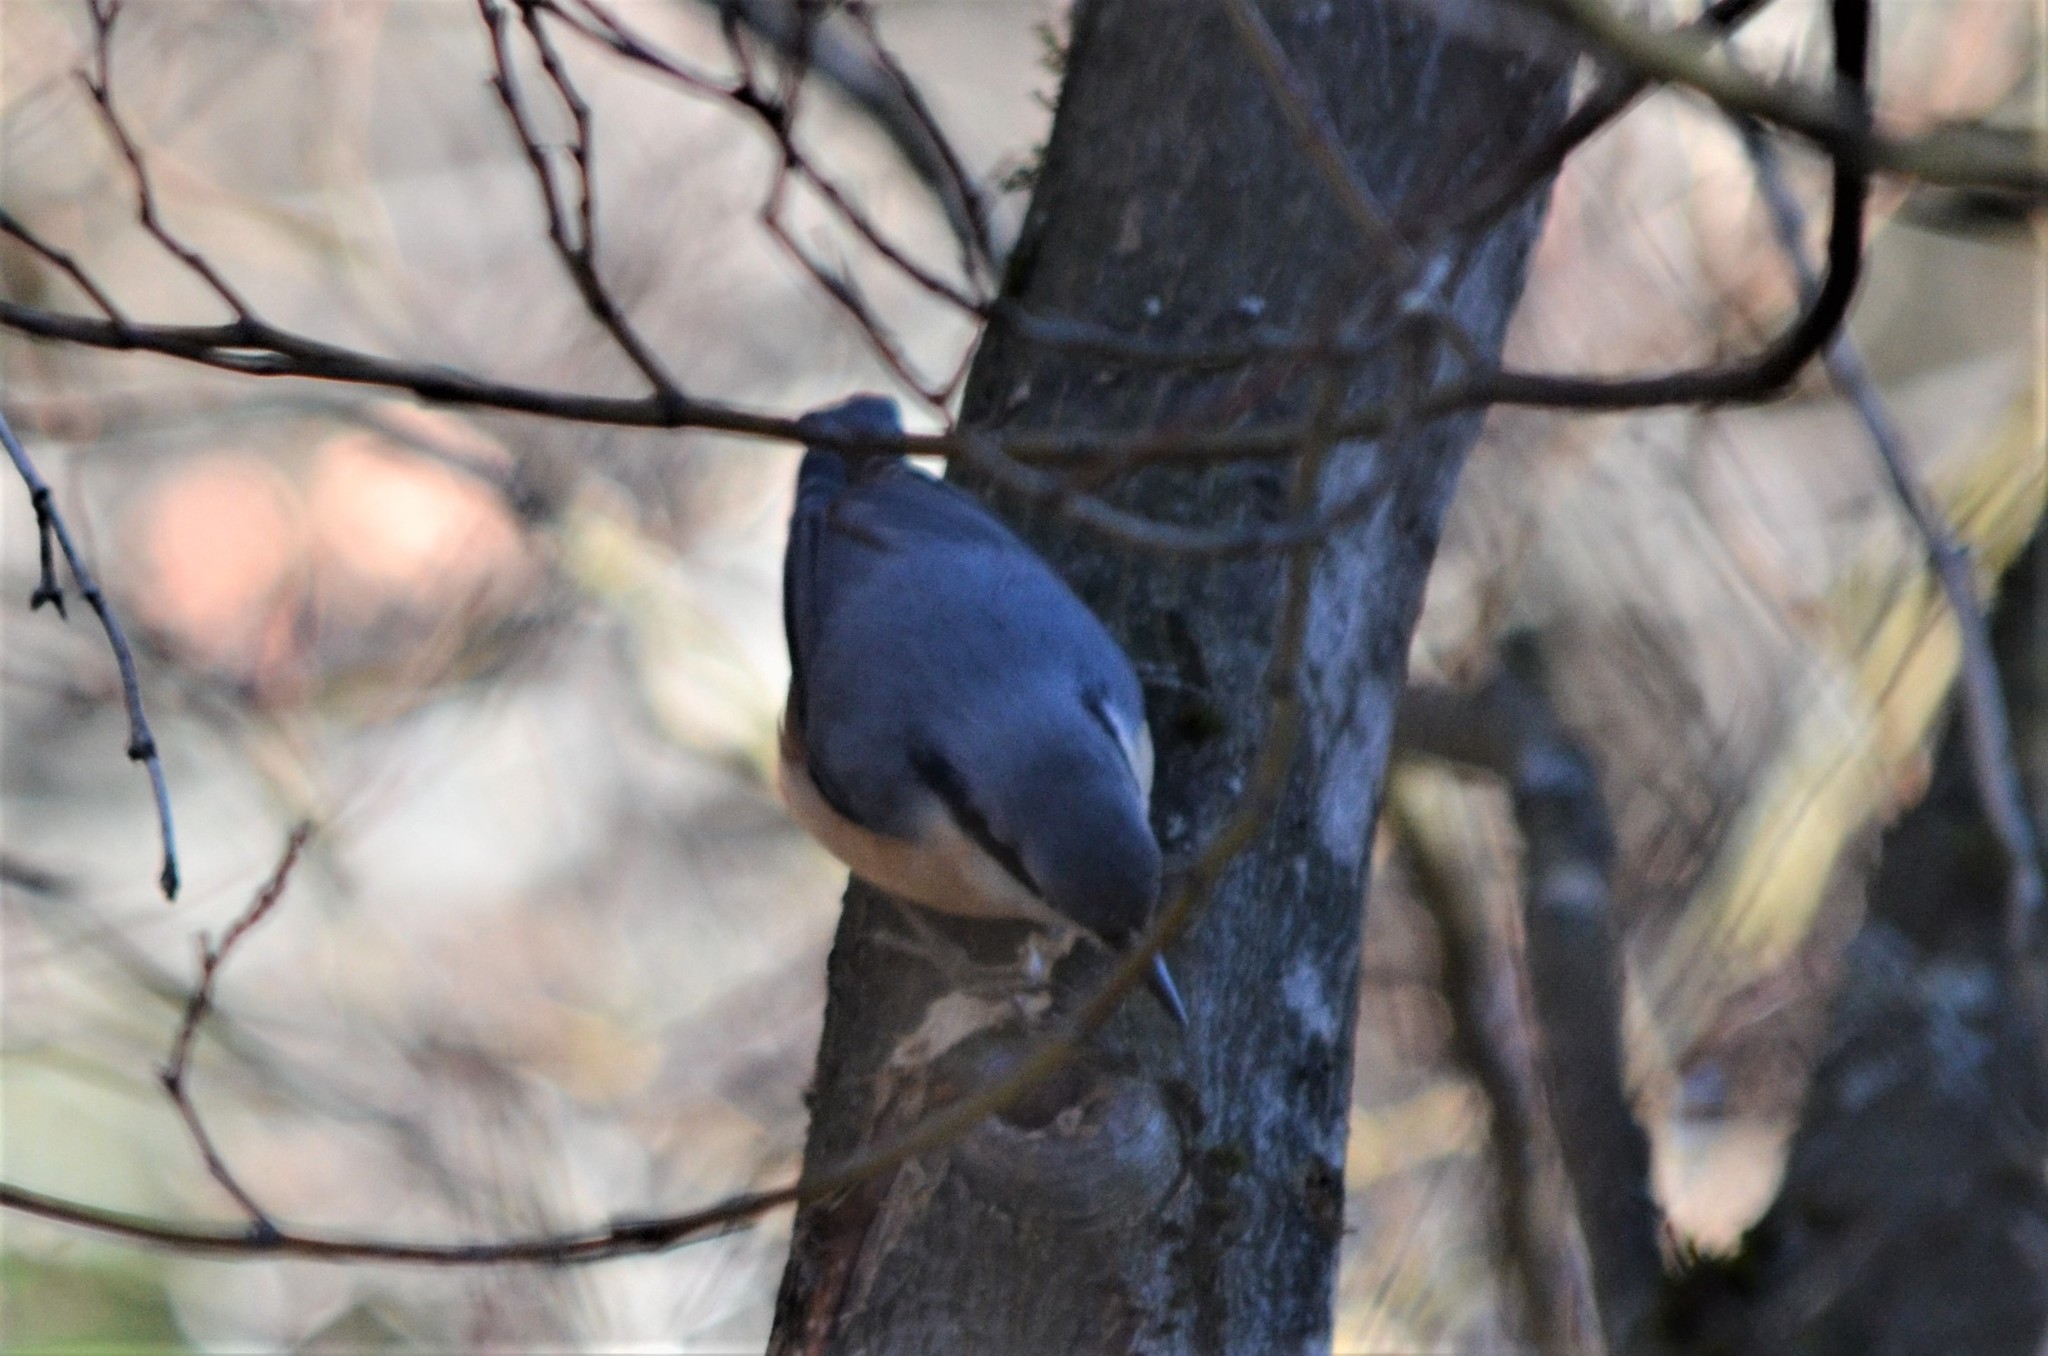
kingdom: Animalia
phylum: Chordata
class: Aves
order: Passeriformes
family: Sittidae
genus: Sitta
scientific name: Sitta europaea
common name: Eurasian nuthatch
